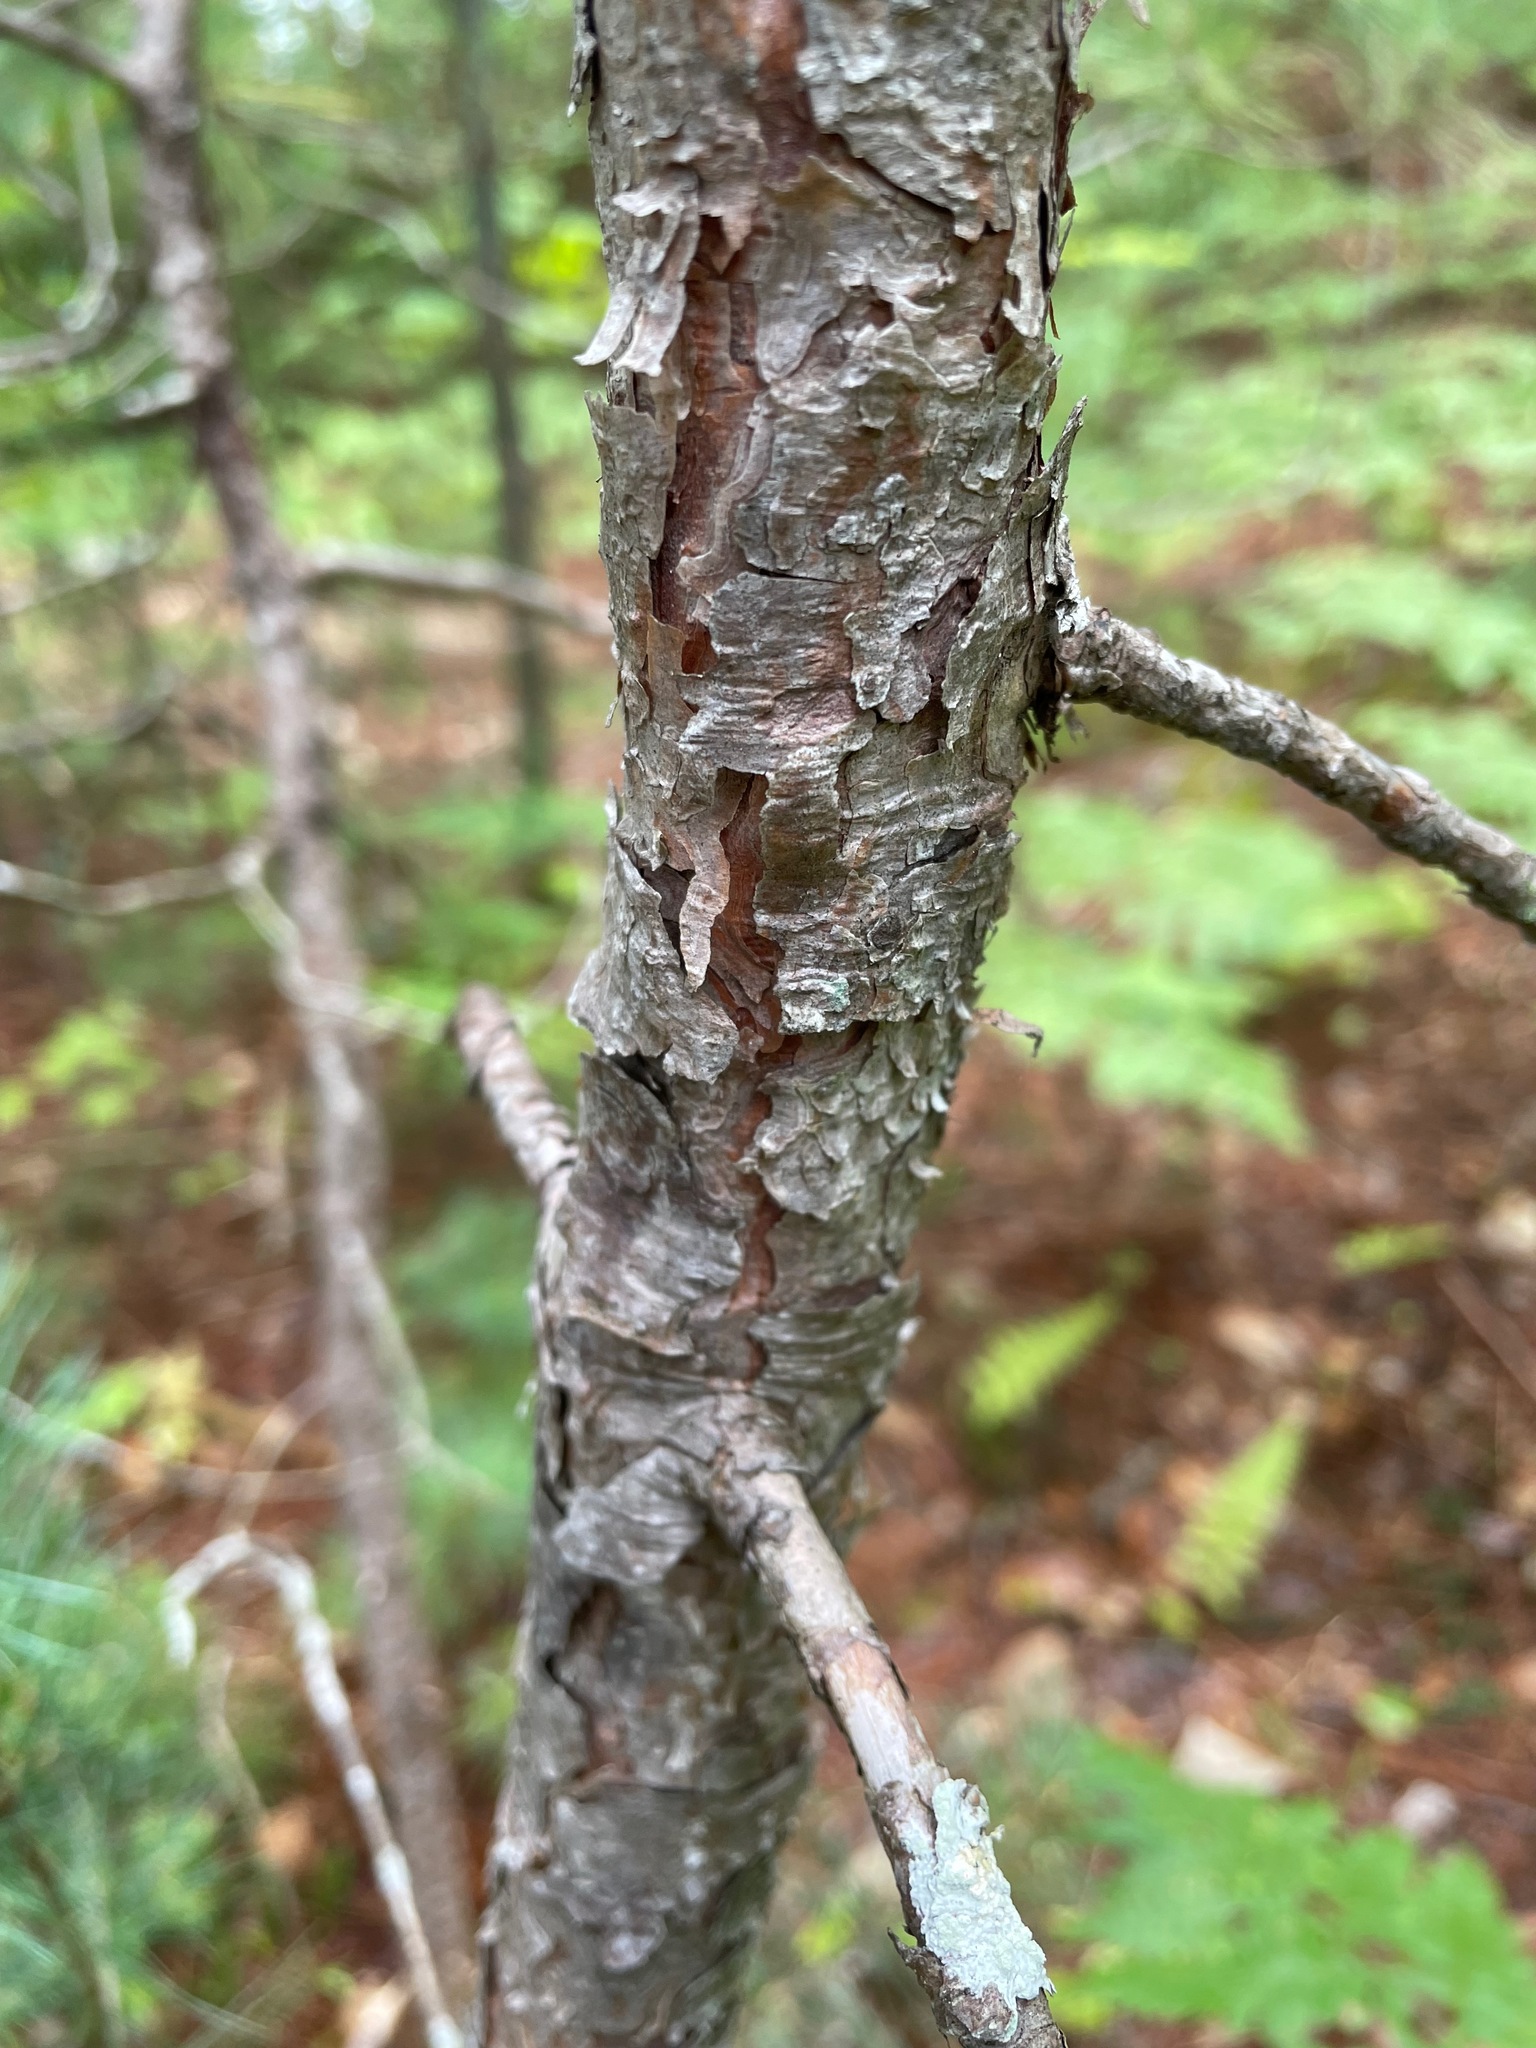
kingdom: Plantae
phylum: Tracheophyta
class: Pinopsida
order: Pinales
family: Pinaceae
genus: Pinus
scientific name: Pinus resinosa
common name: Norway pine
